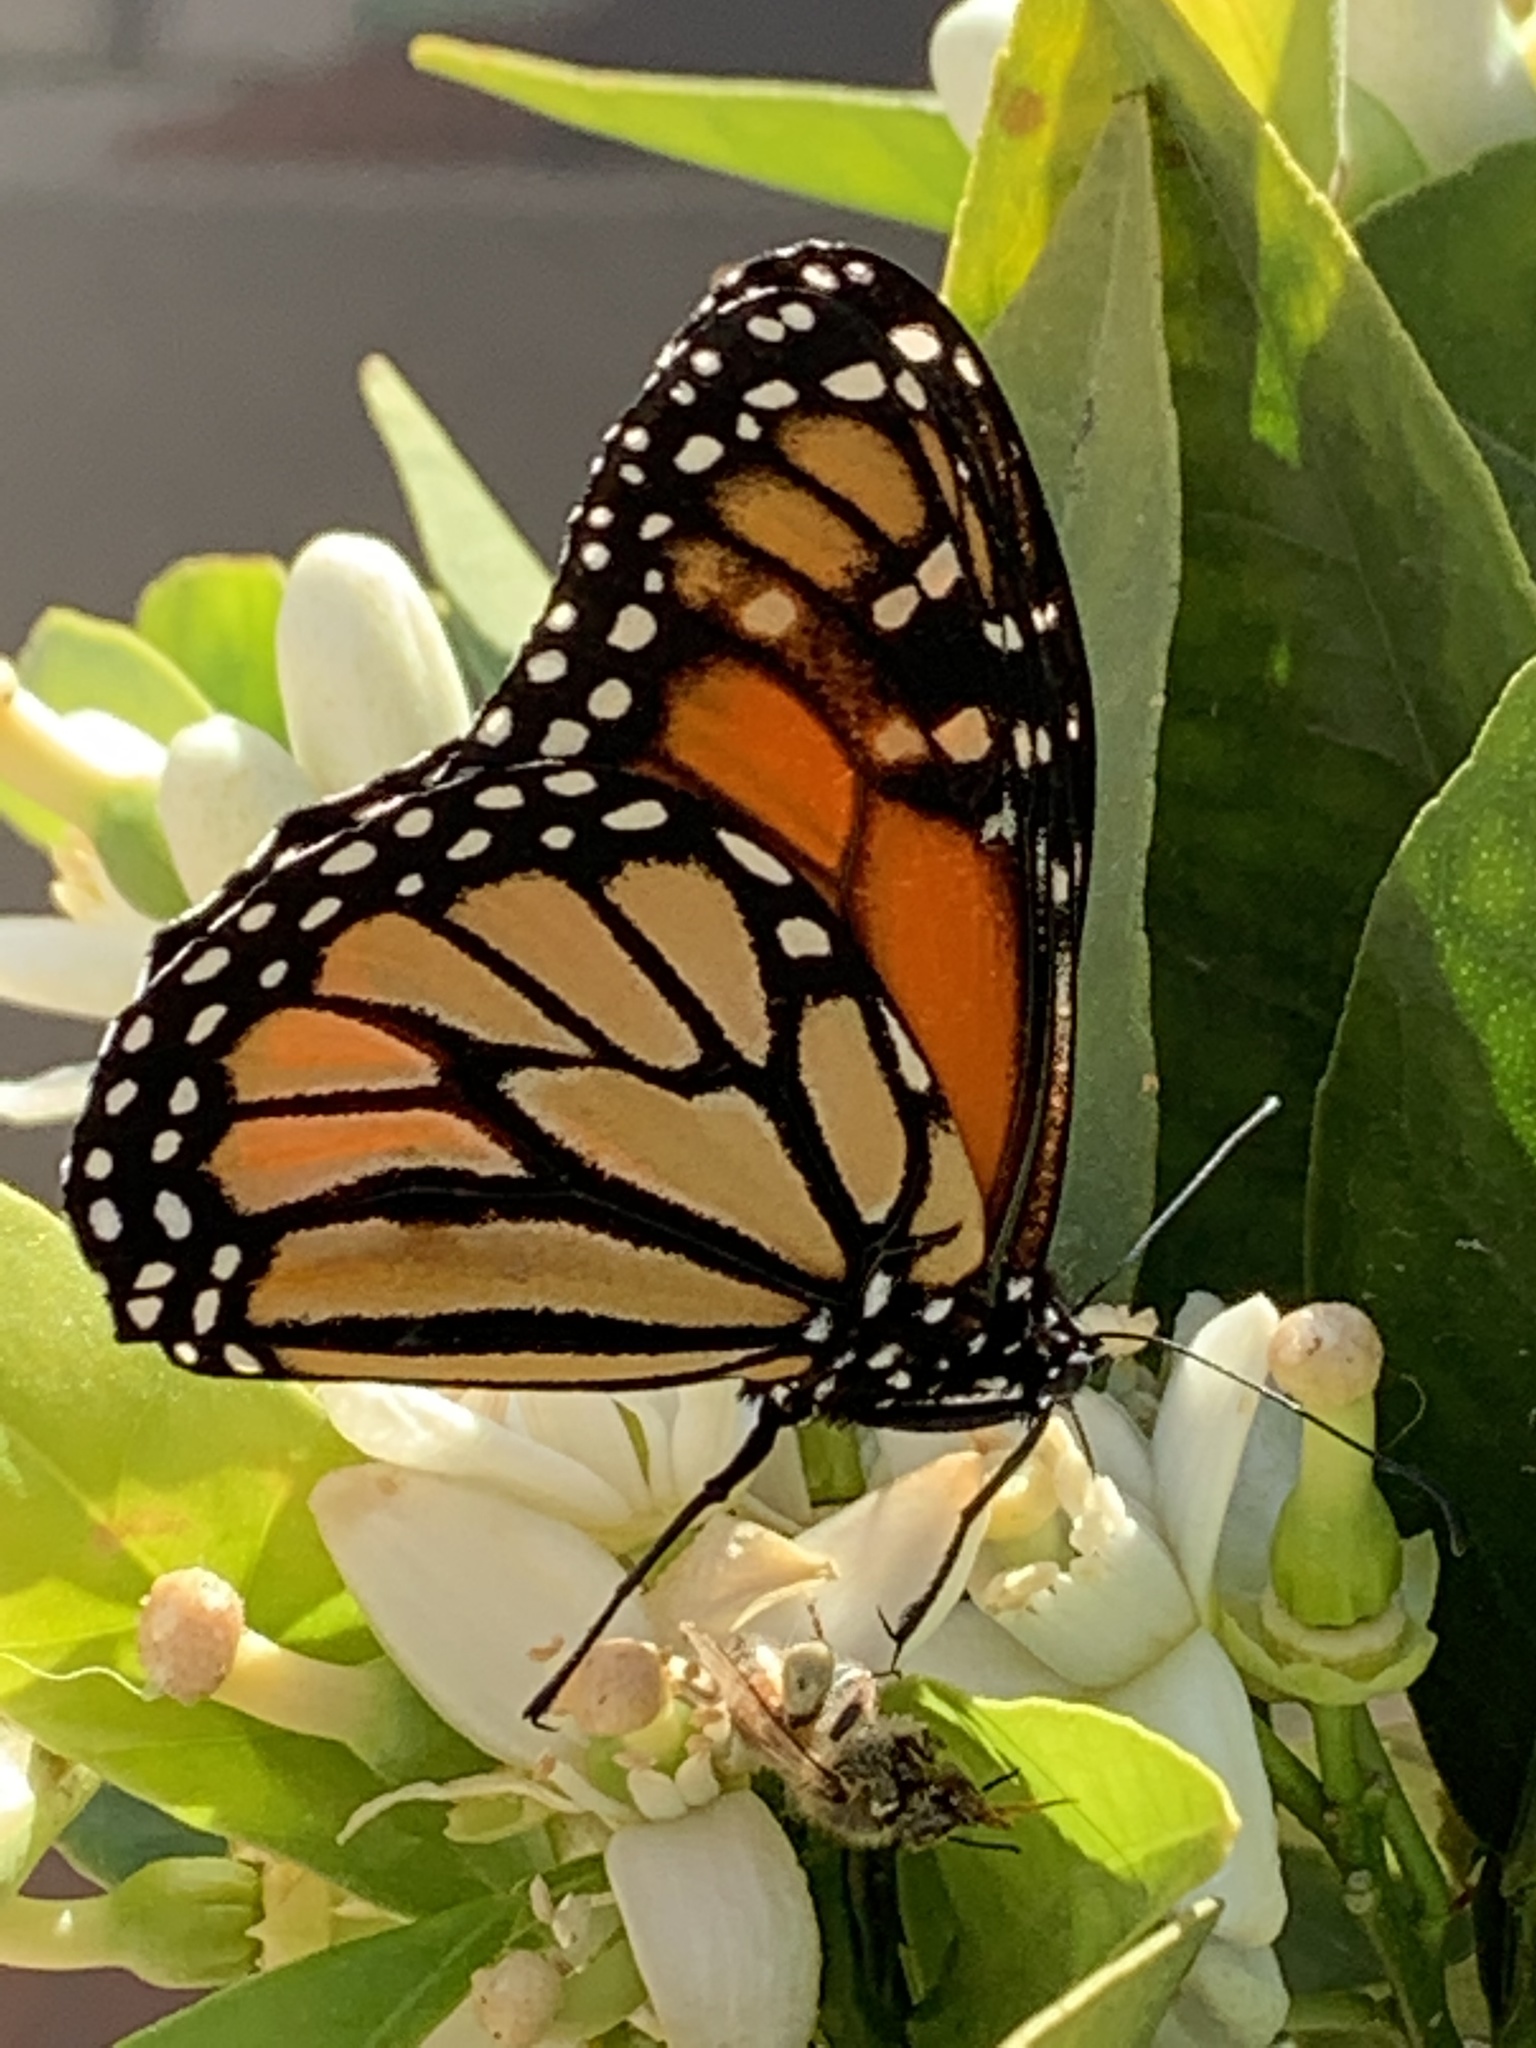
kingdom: Animalia
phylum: Arthropoda
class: Insecta
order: Lepidoptera
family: Nymphalidae
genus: Danaus
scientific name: Danaus plexippus
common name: Monarch
